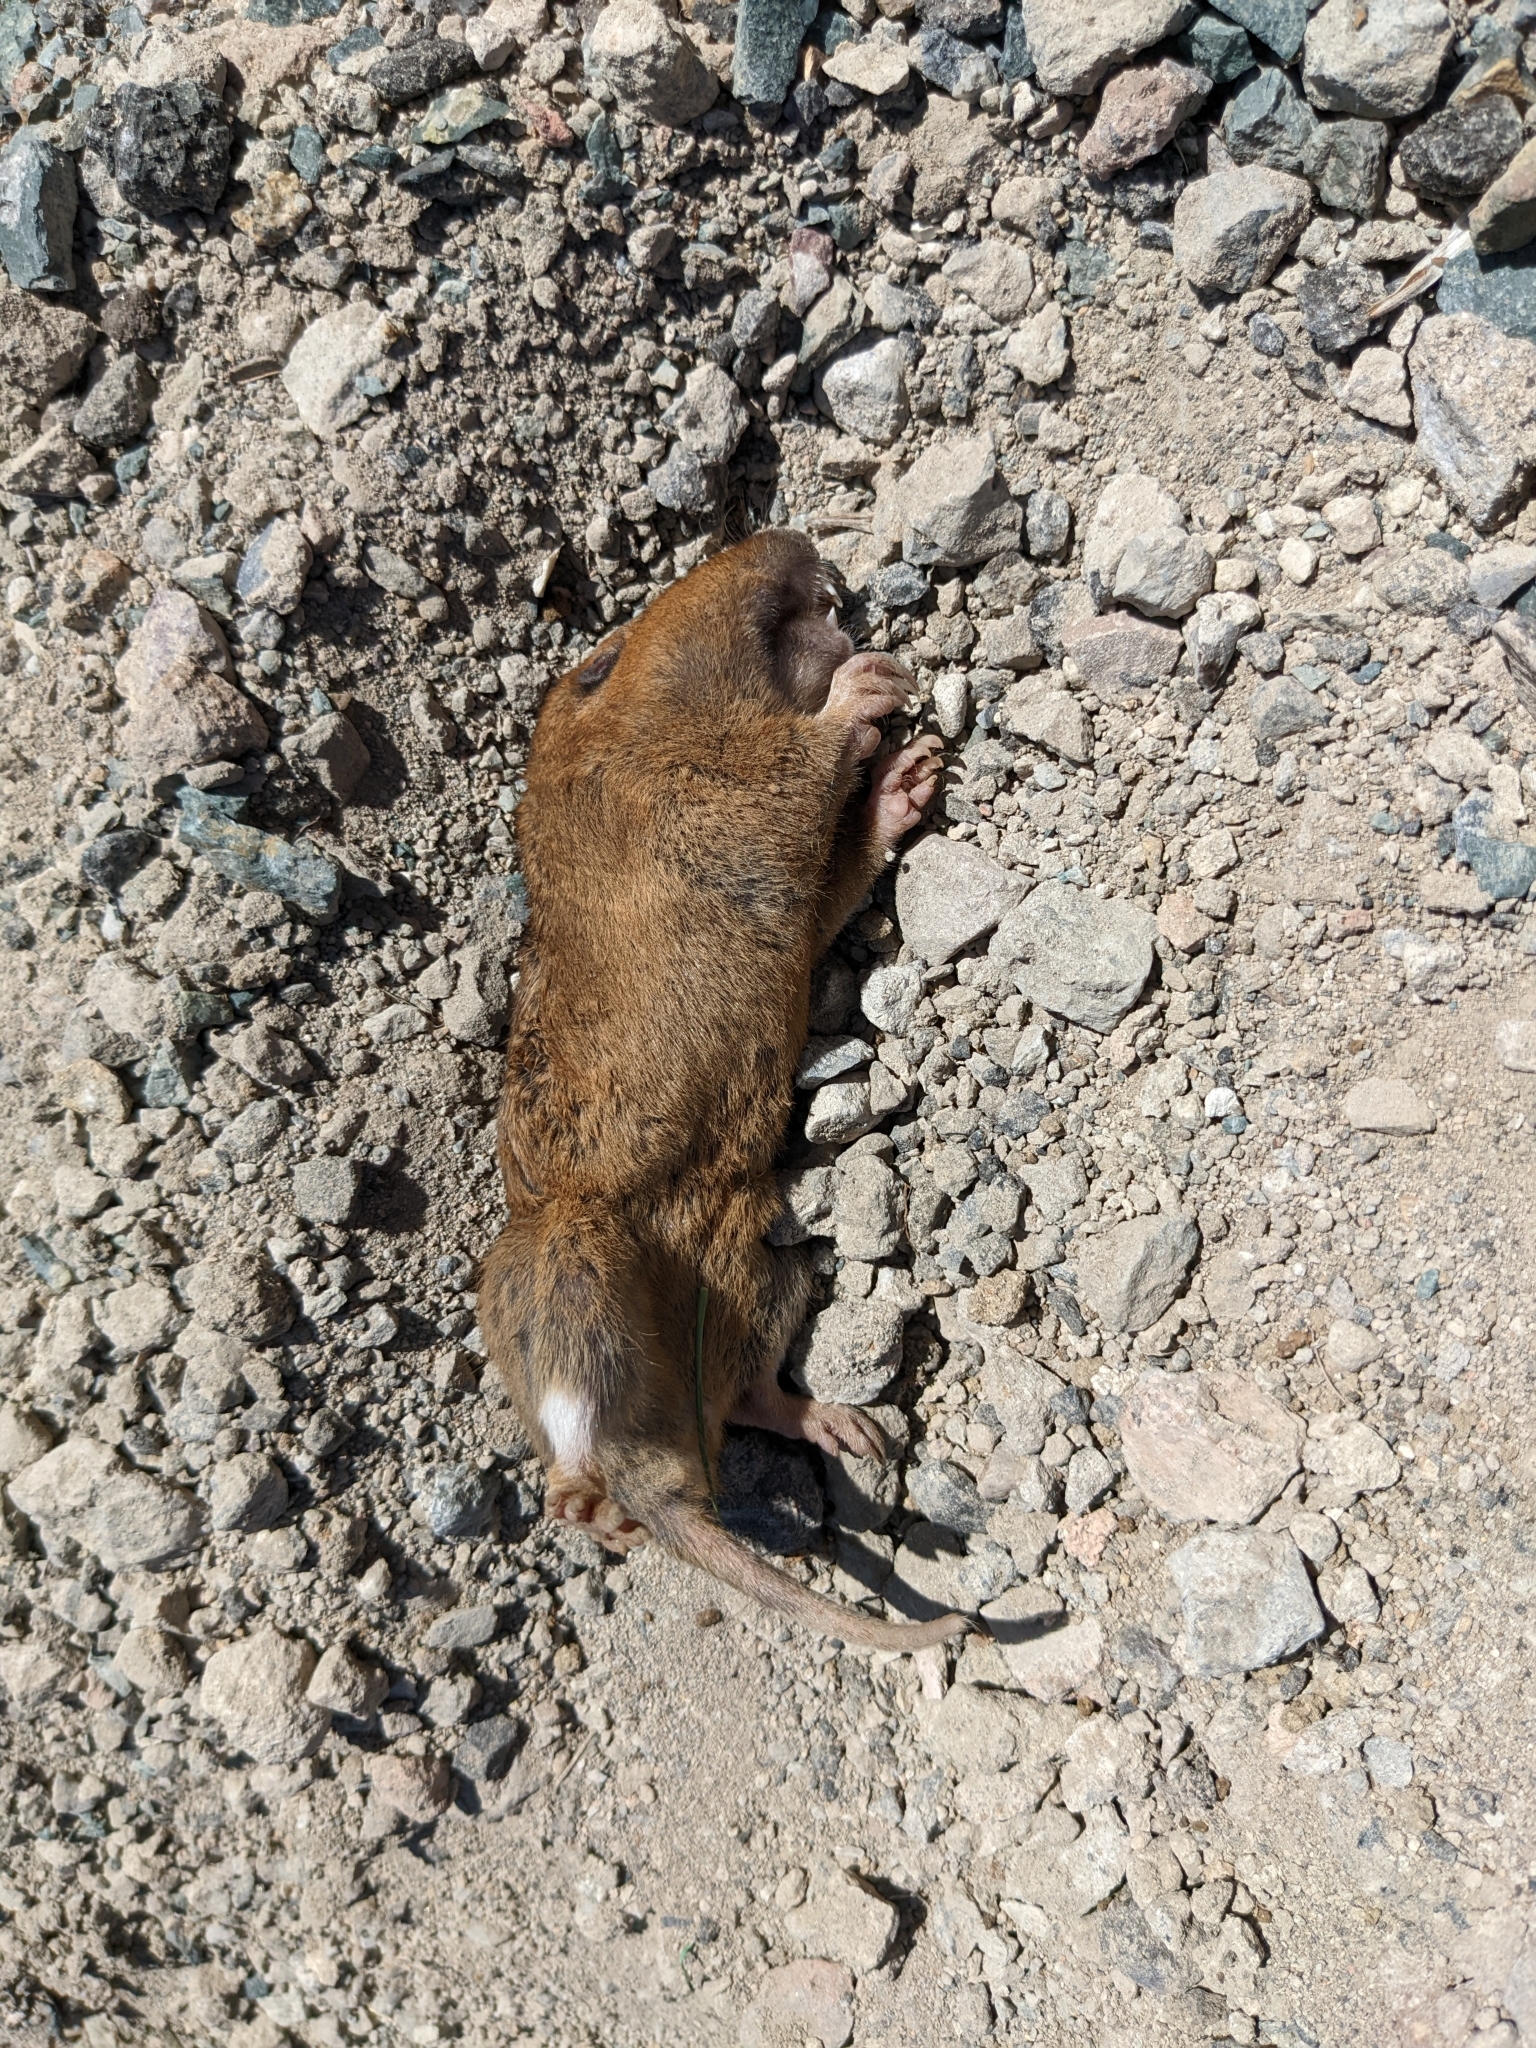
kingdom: Animalia
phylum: Chordata
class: Mammalia
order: Rodentia
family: Geomyidae
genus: Thomomys
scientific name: Thomomys bottae
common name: Botta's pocket gopher
